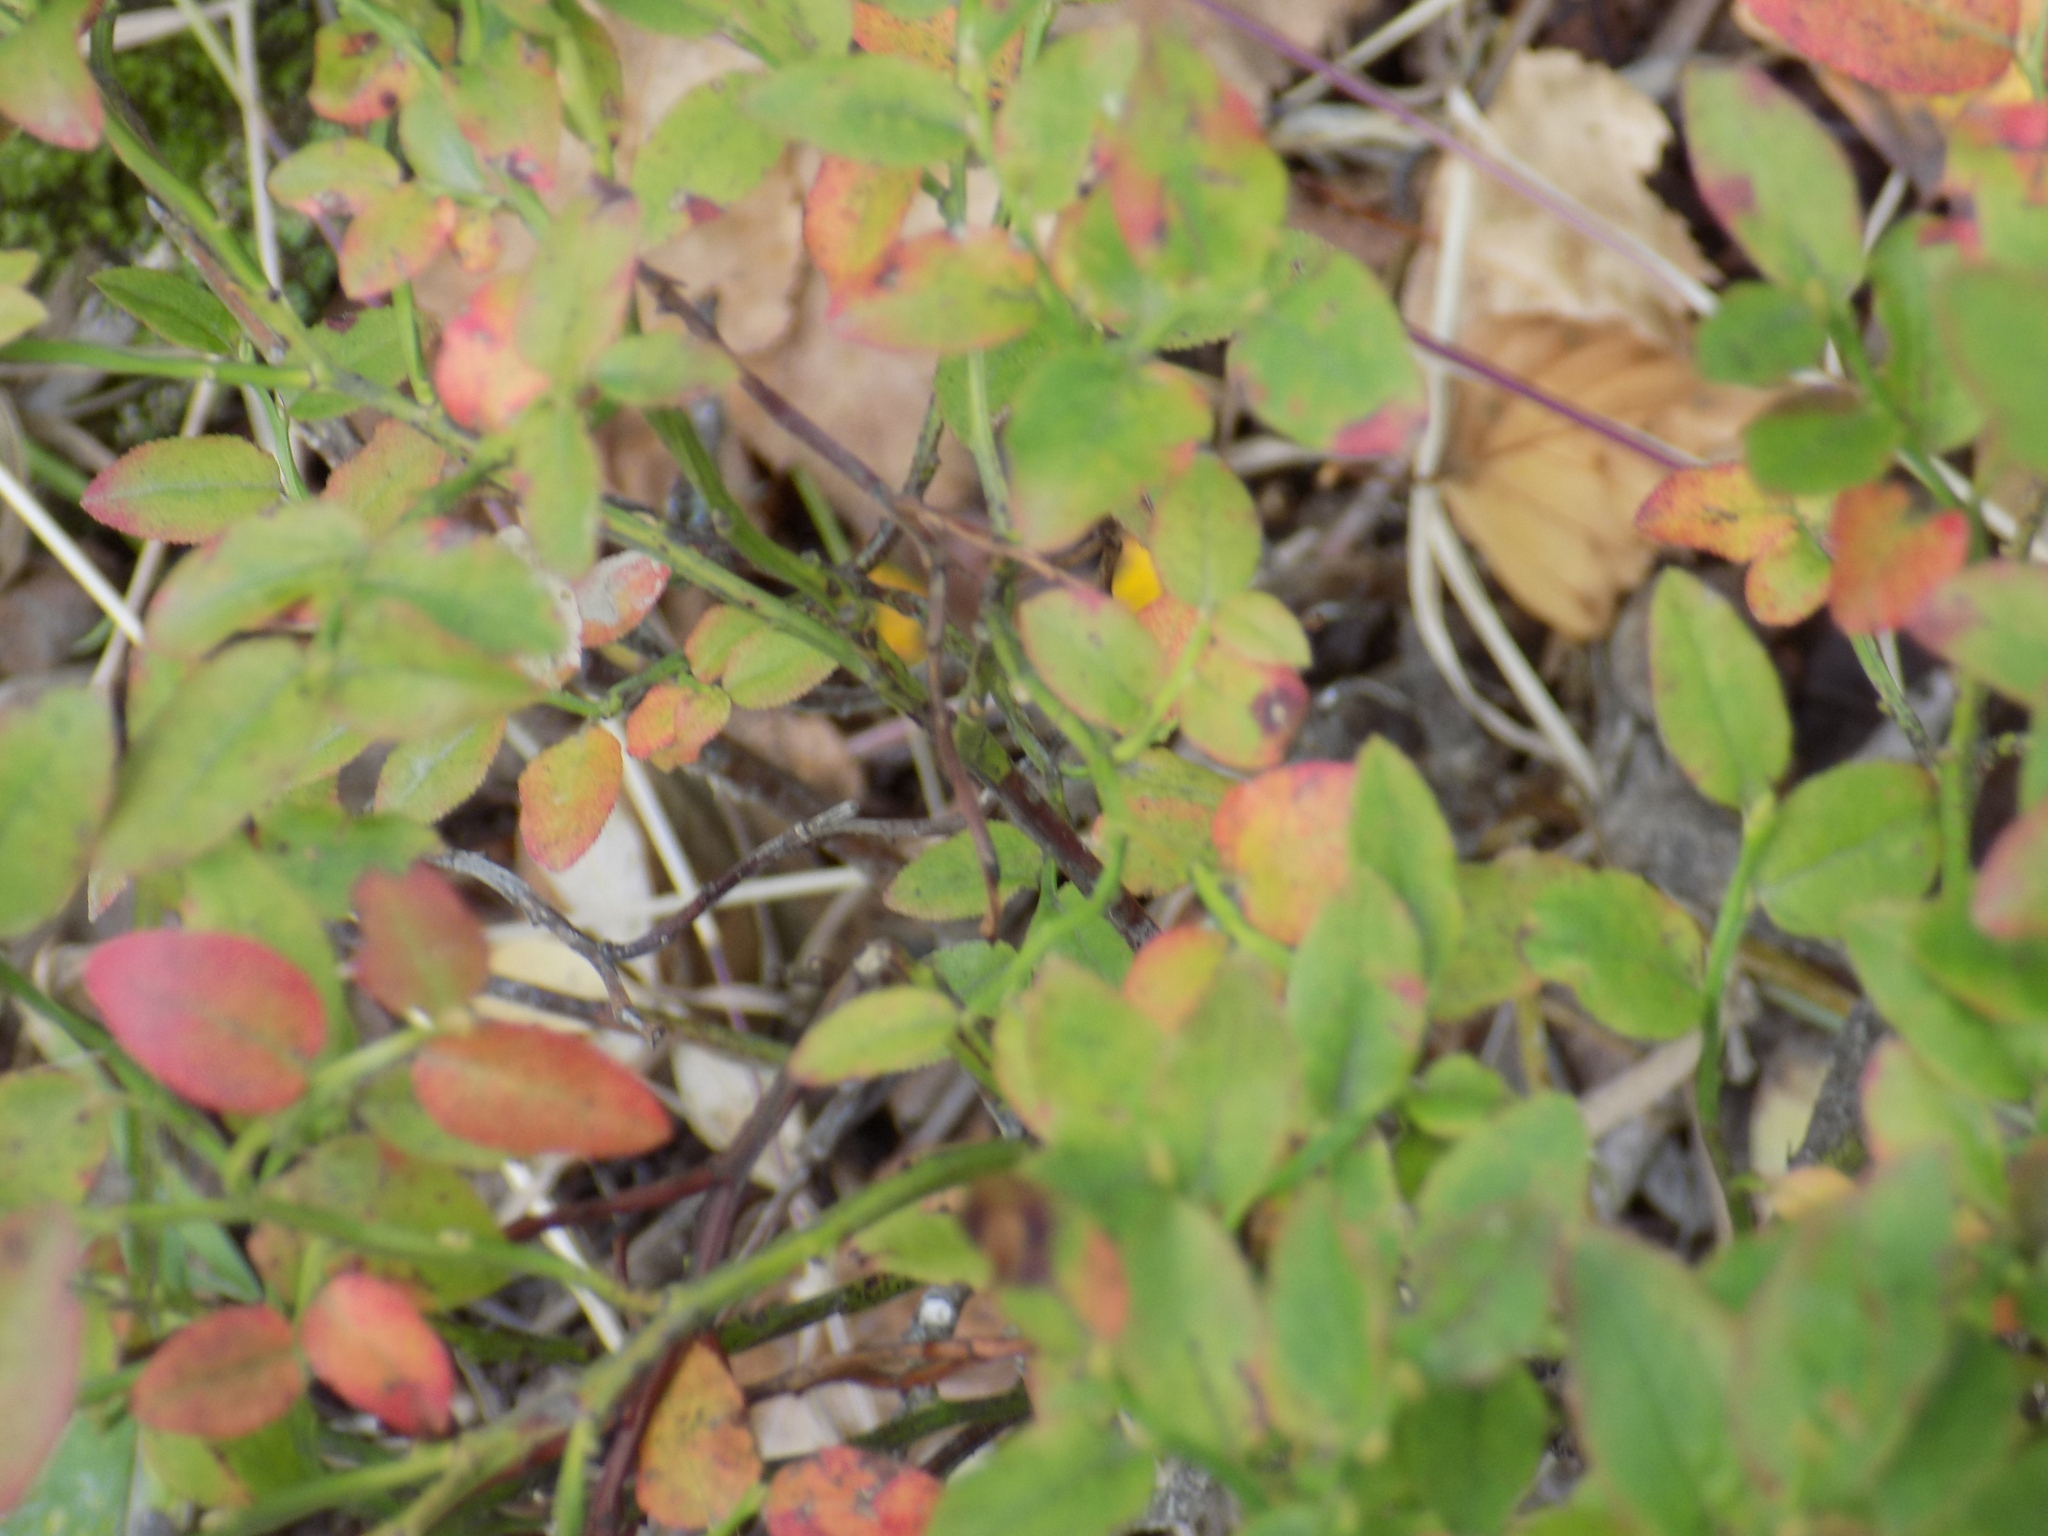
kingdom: Plantae
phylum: Tracheophyta
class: Magnoliopsida
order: Ericales
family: Ericaceae
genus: Vaccinium
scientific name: Vaccinium myrtillus
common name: Bilberry
